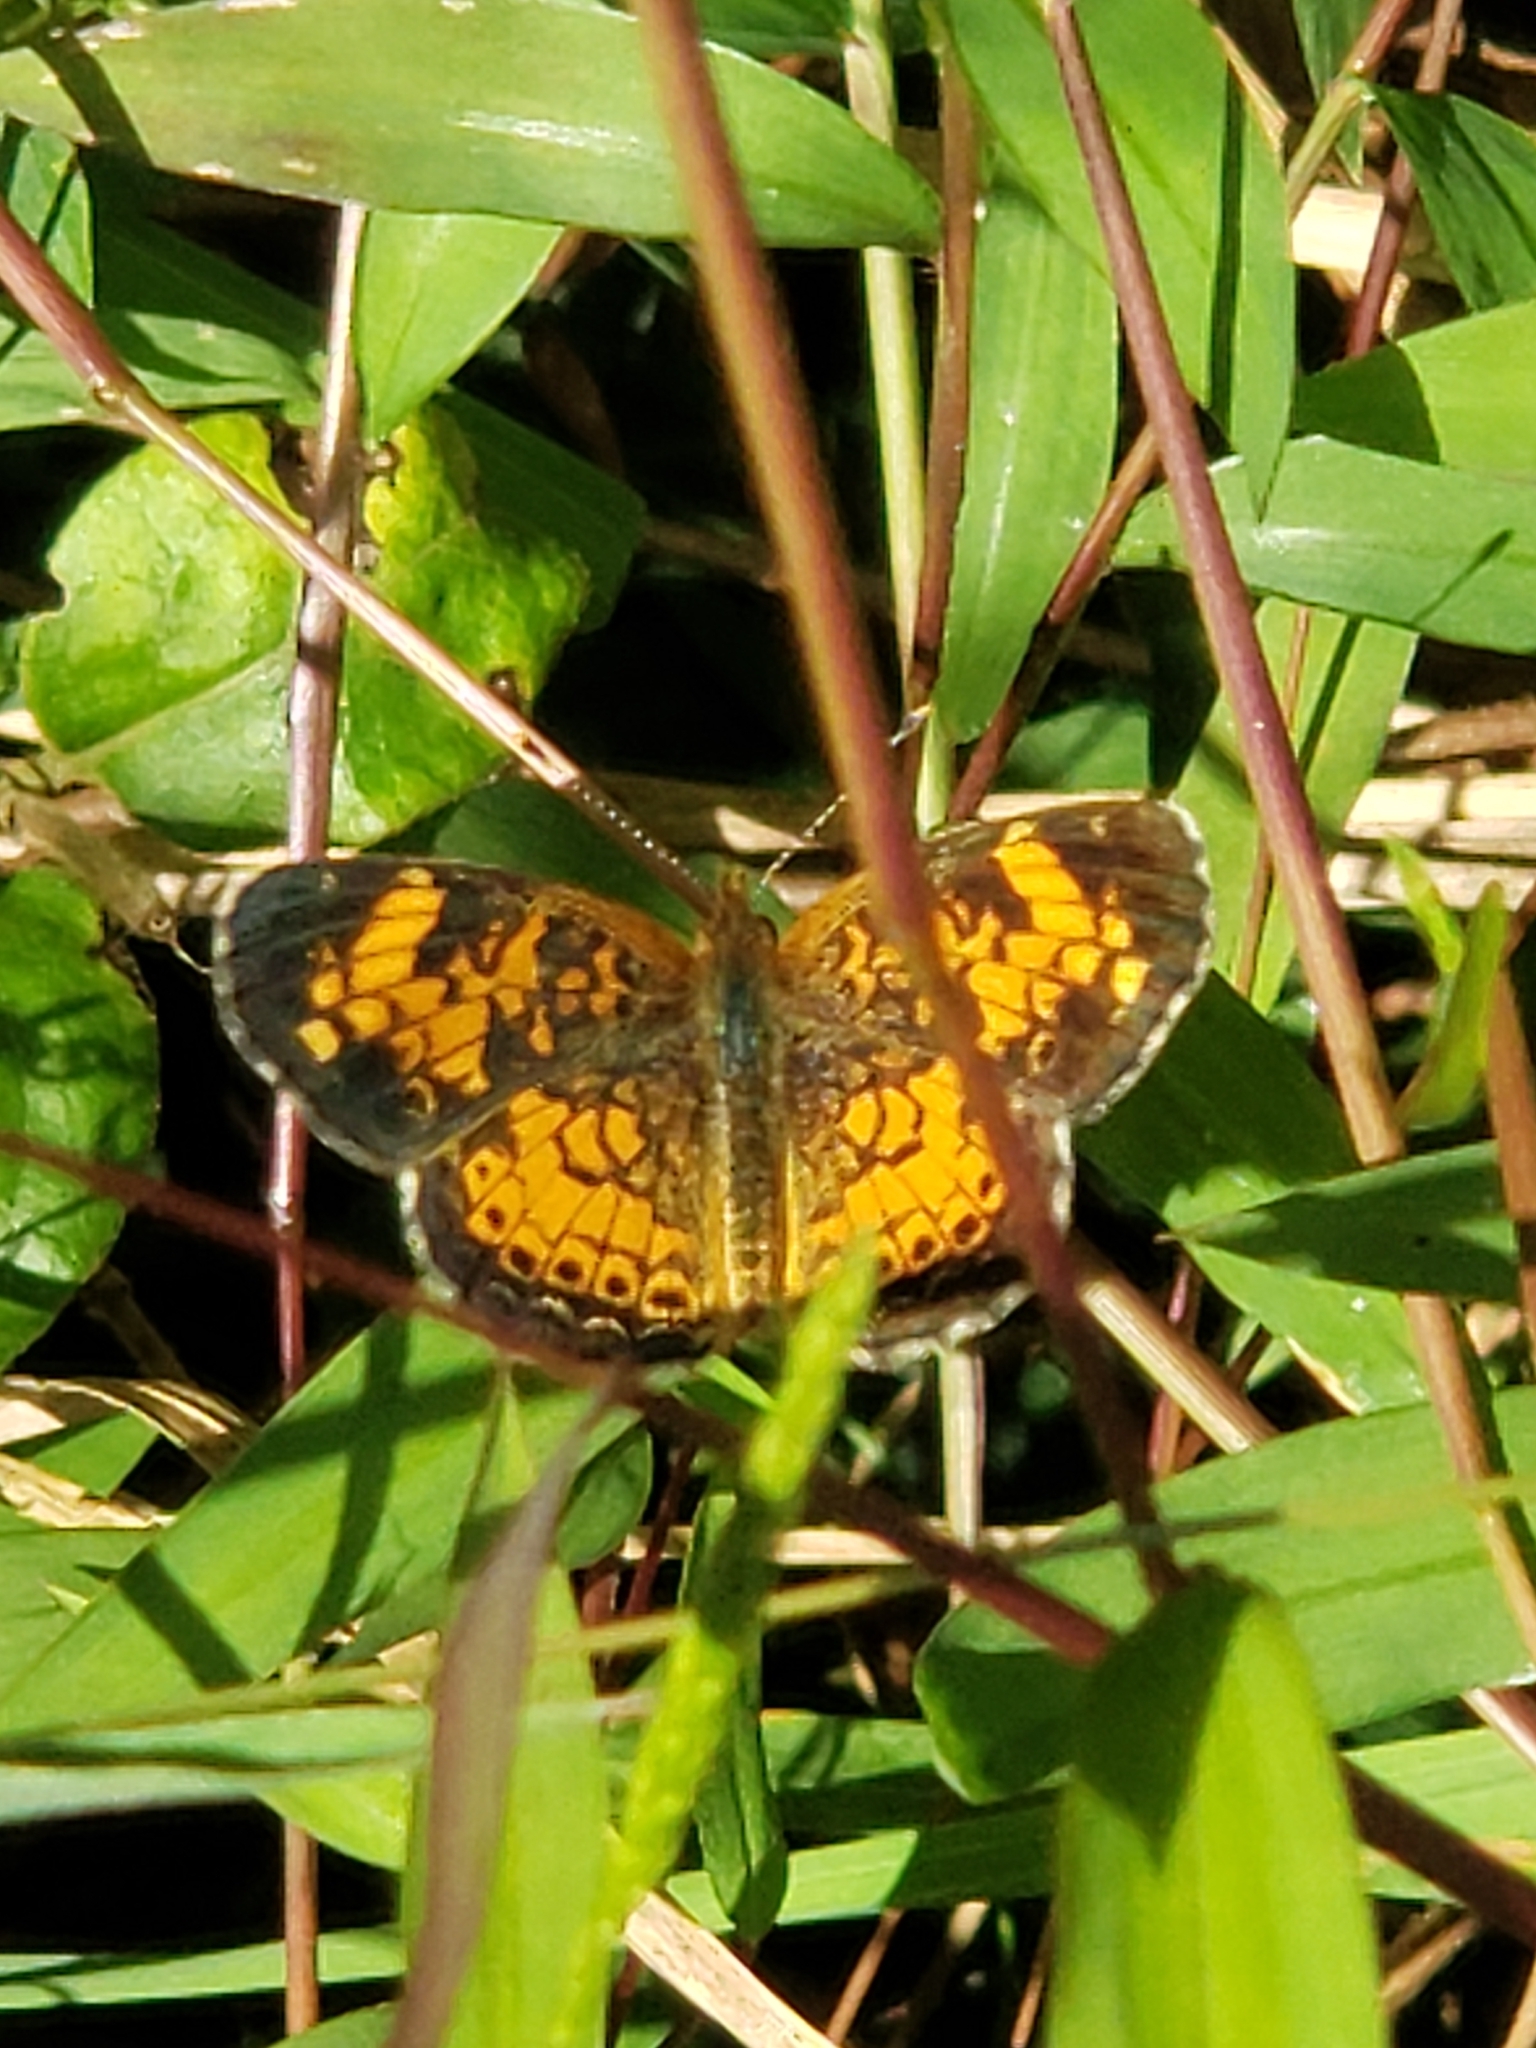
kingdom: Animalia
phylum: Arthropoda
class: Insecta
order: Lepidoptera
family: Nymphalidae
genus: Phyciodes
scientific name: Phyciodes tharos
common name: Pearl crescent
